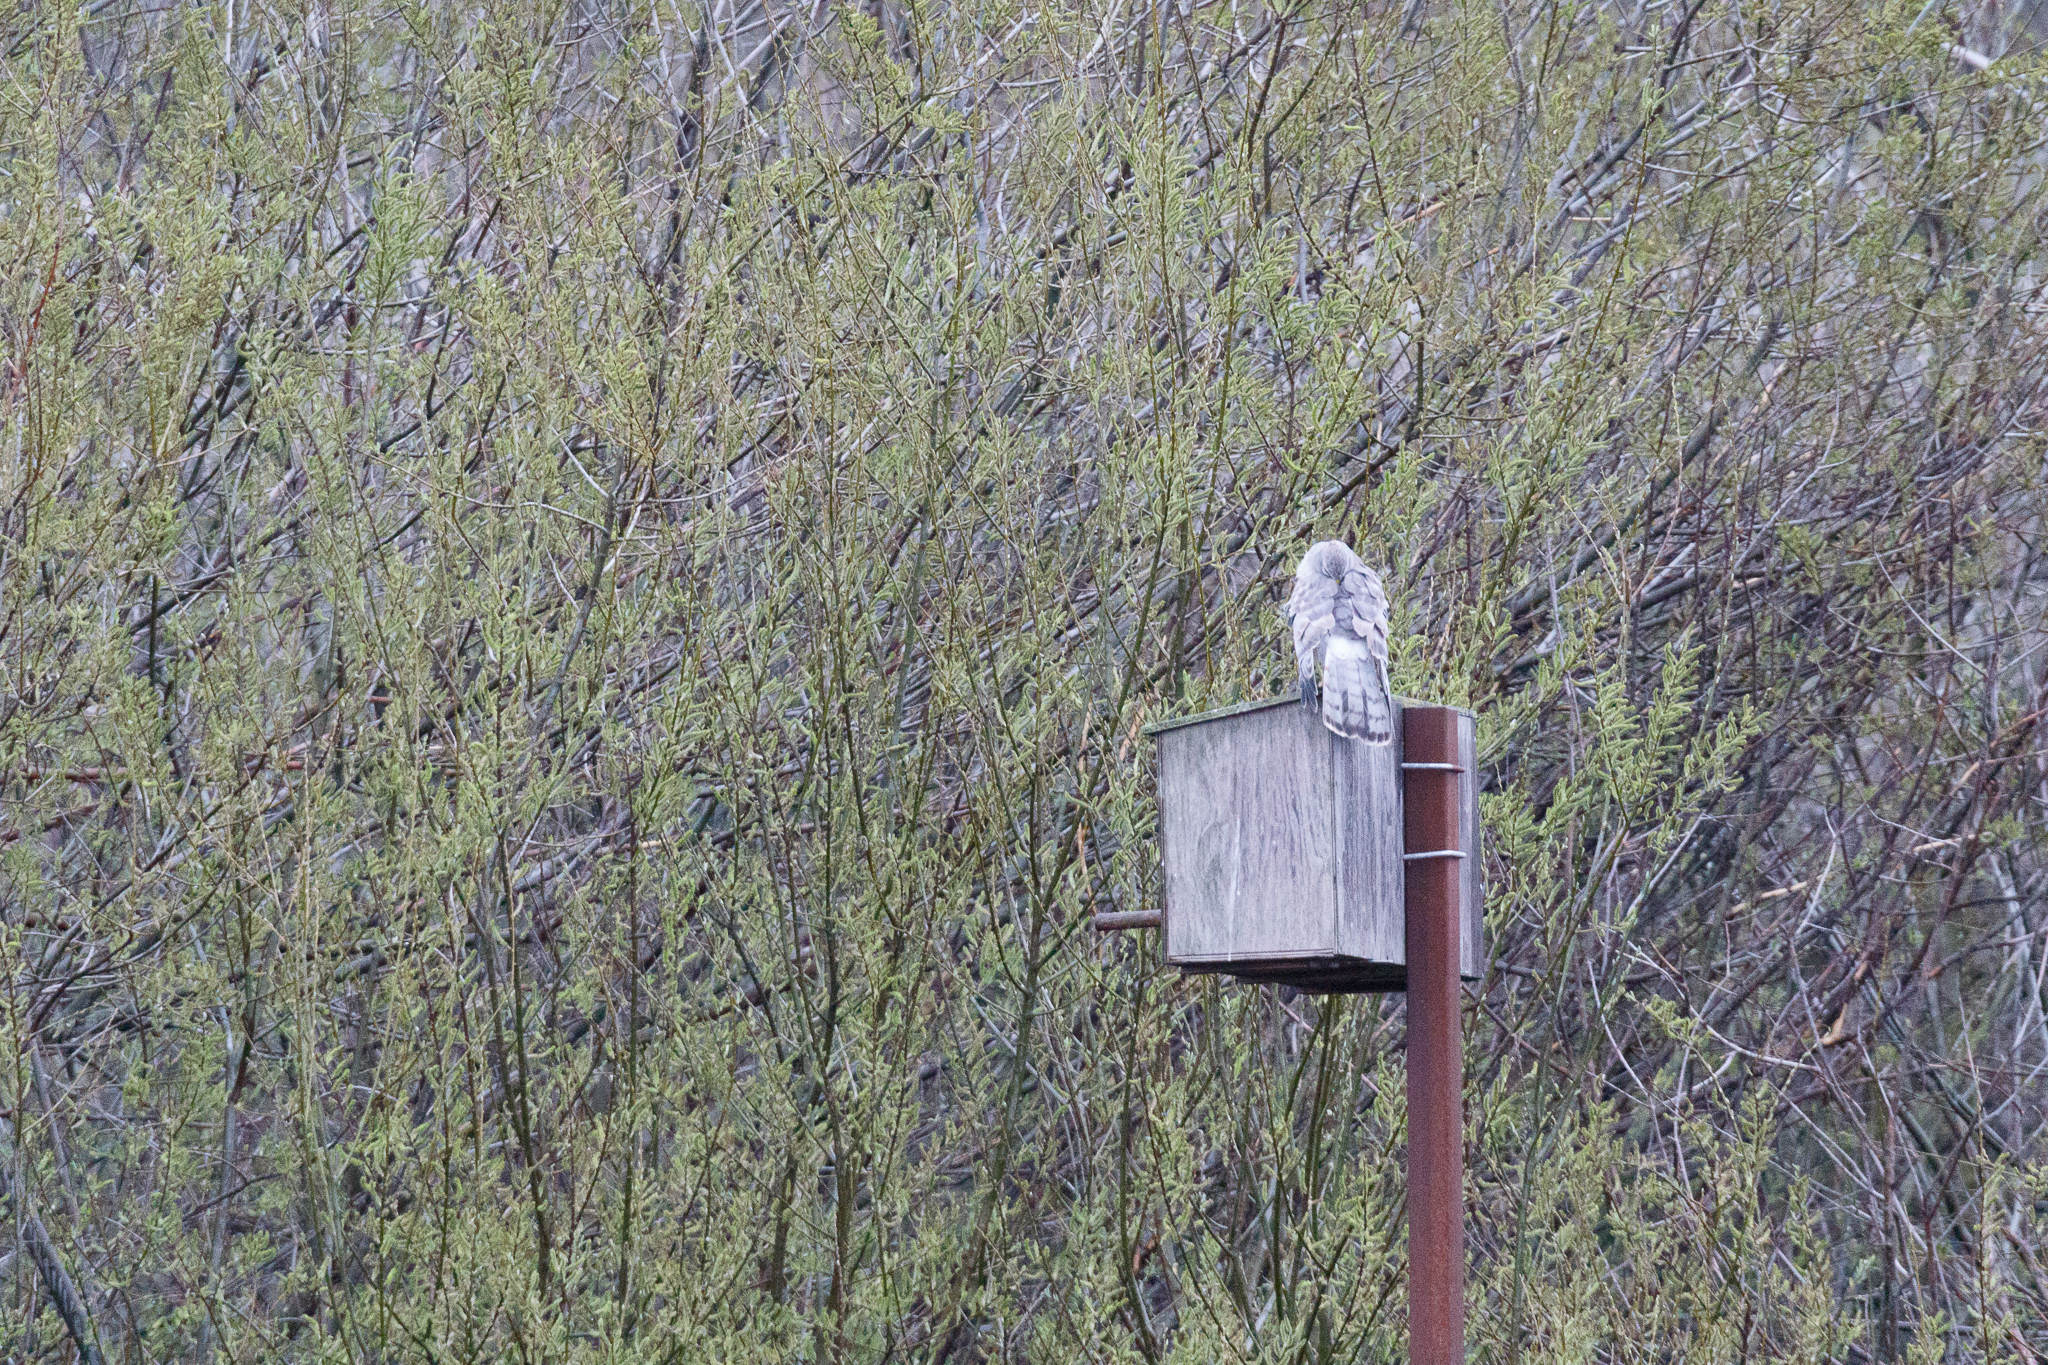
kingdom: Animalia
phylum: Chordata
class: Aves
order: Accipitriformes
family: Accipitridae
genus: Circus
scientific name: Circus cyaneus
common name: Hen harrier
